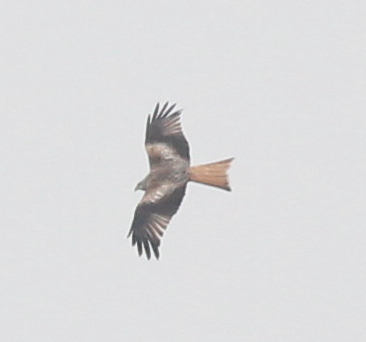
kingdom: Animalia
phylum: Chordata
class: Aves
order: Accipitriformes
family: Accipitridae
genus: Milvus
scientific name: Milvus milvus
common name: Red kite
